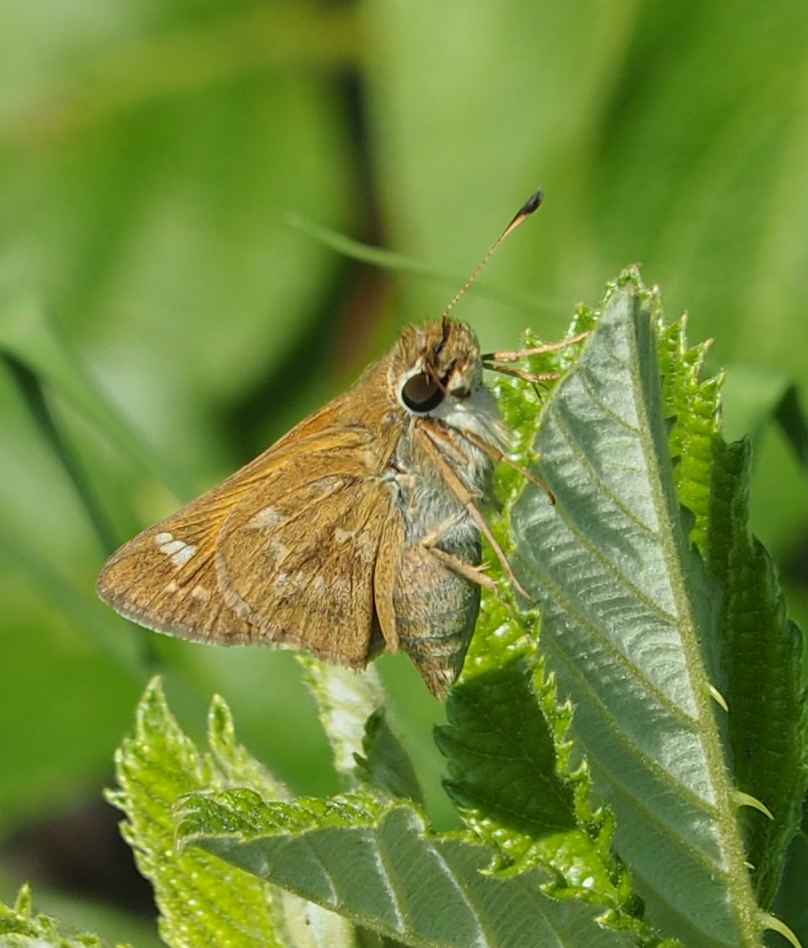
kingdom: Animalia
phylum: Arthropoda
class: Insecta
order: Lepidoptera
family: Hesperiidae
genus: Atalopedes
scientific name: Atalopedes
